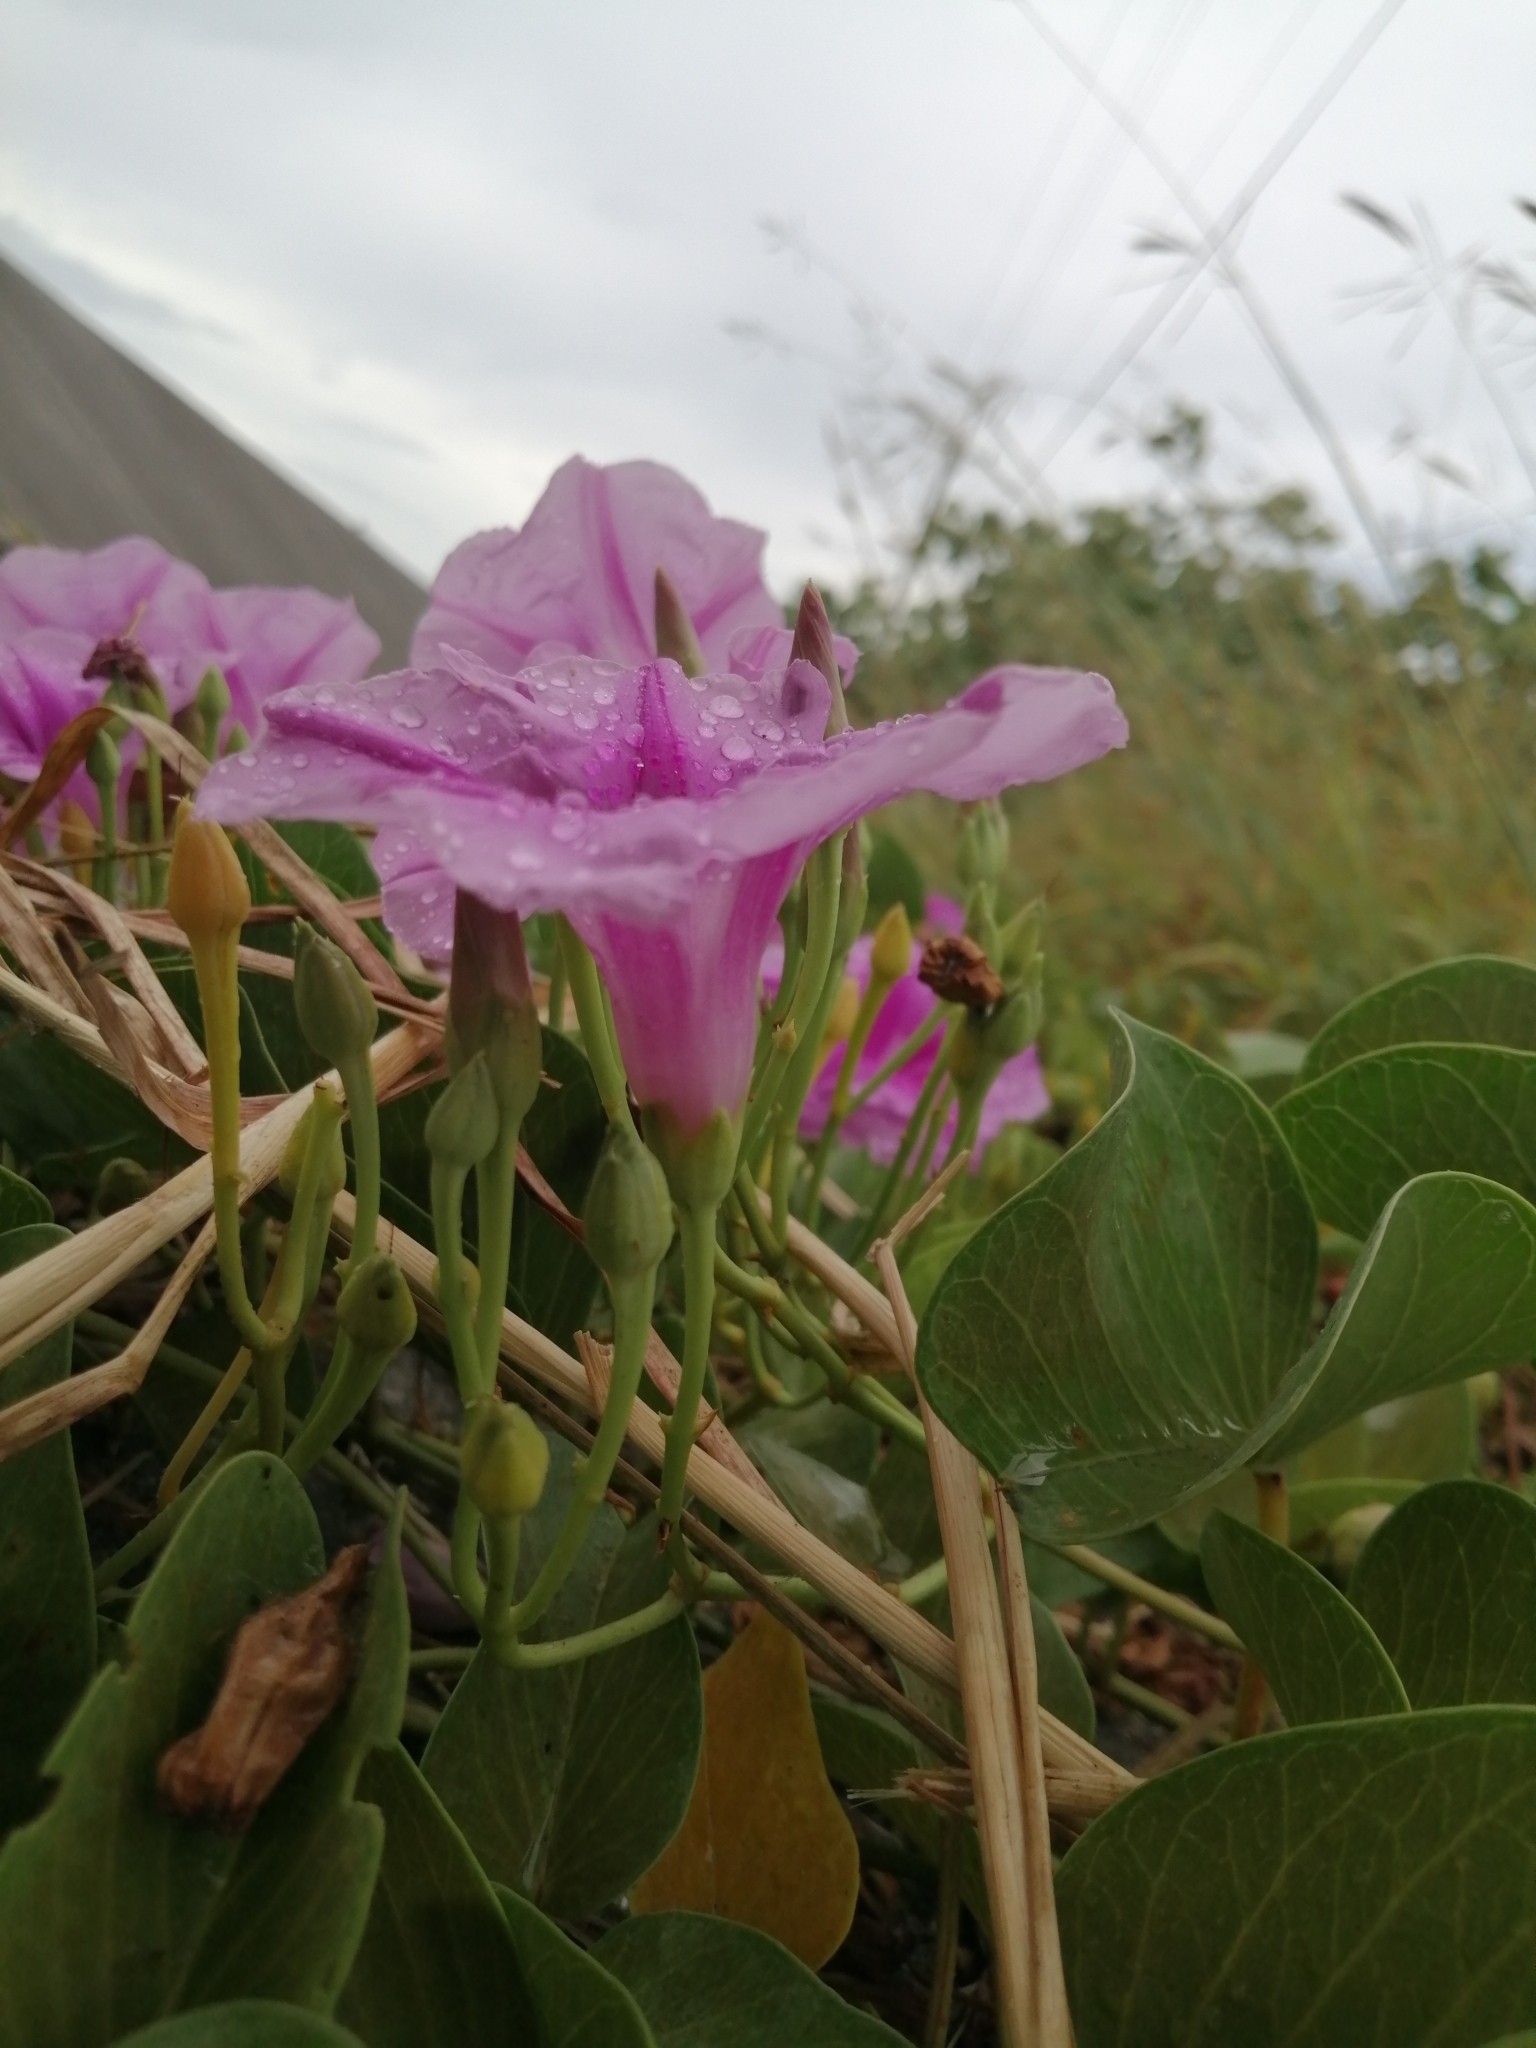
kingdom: Plantae
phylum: Tracheophyta
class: Magnoliopsida
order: Solanales
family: Convolvulaceae
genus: Ipomoea
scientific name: Ipomoea pes-caprae
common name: Beach morning glory
